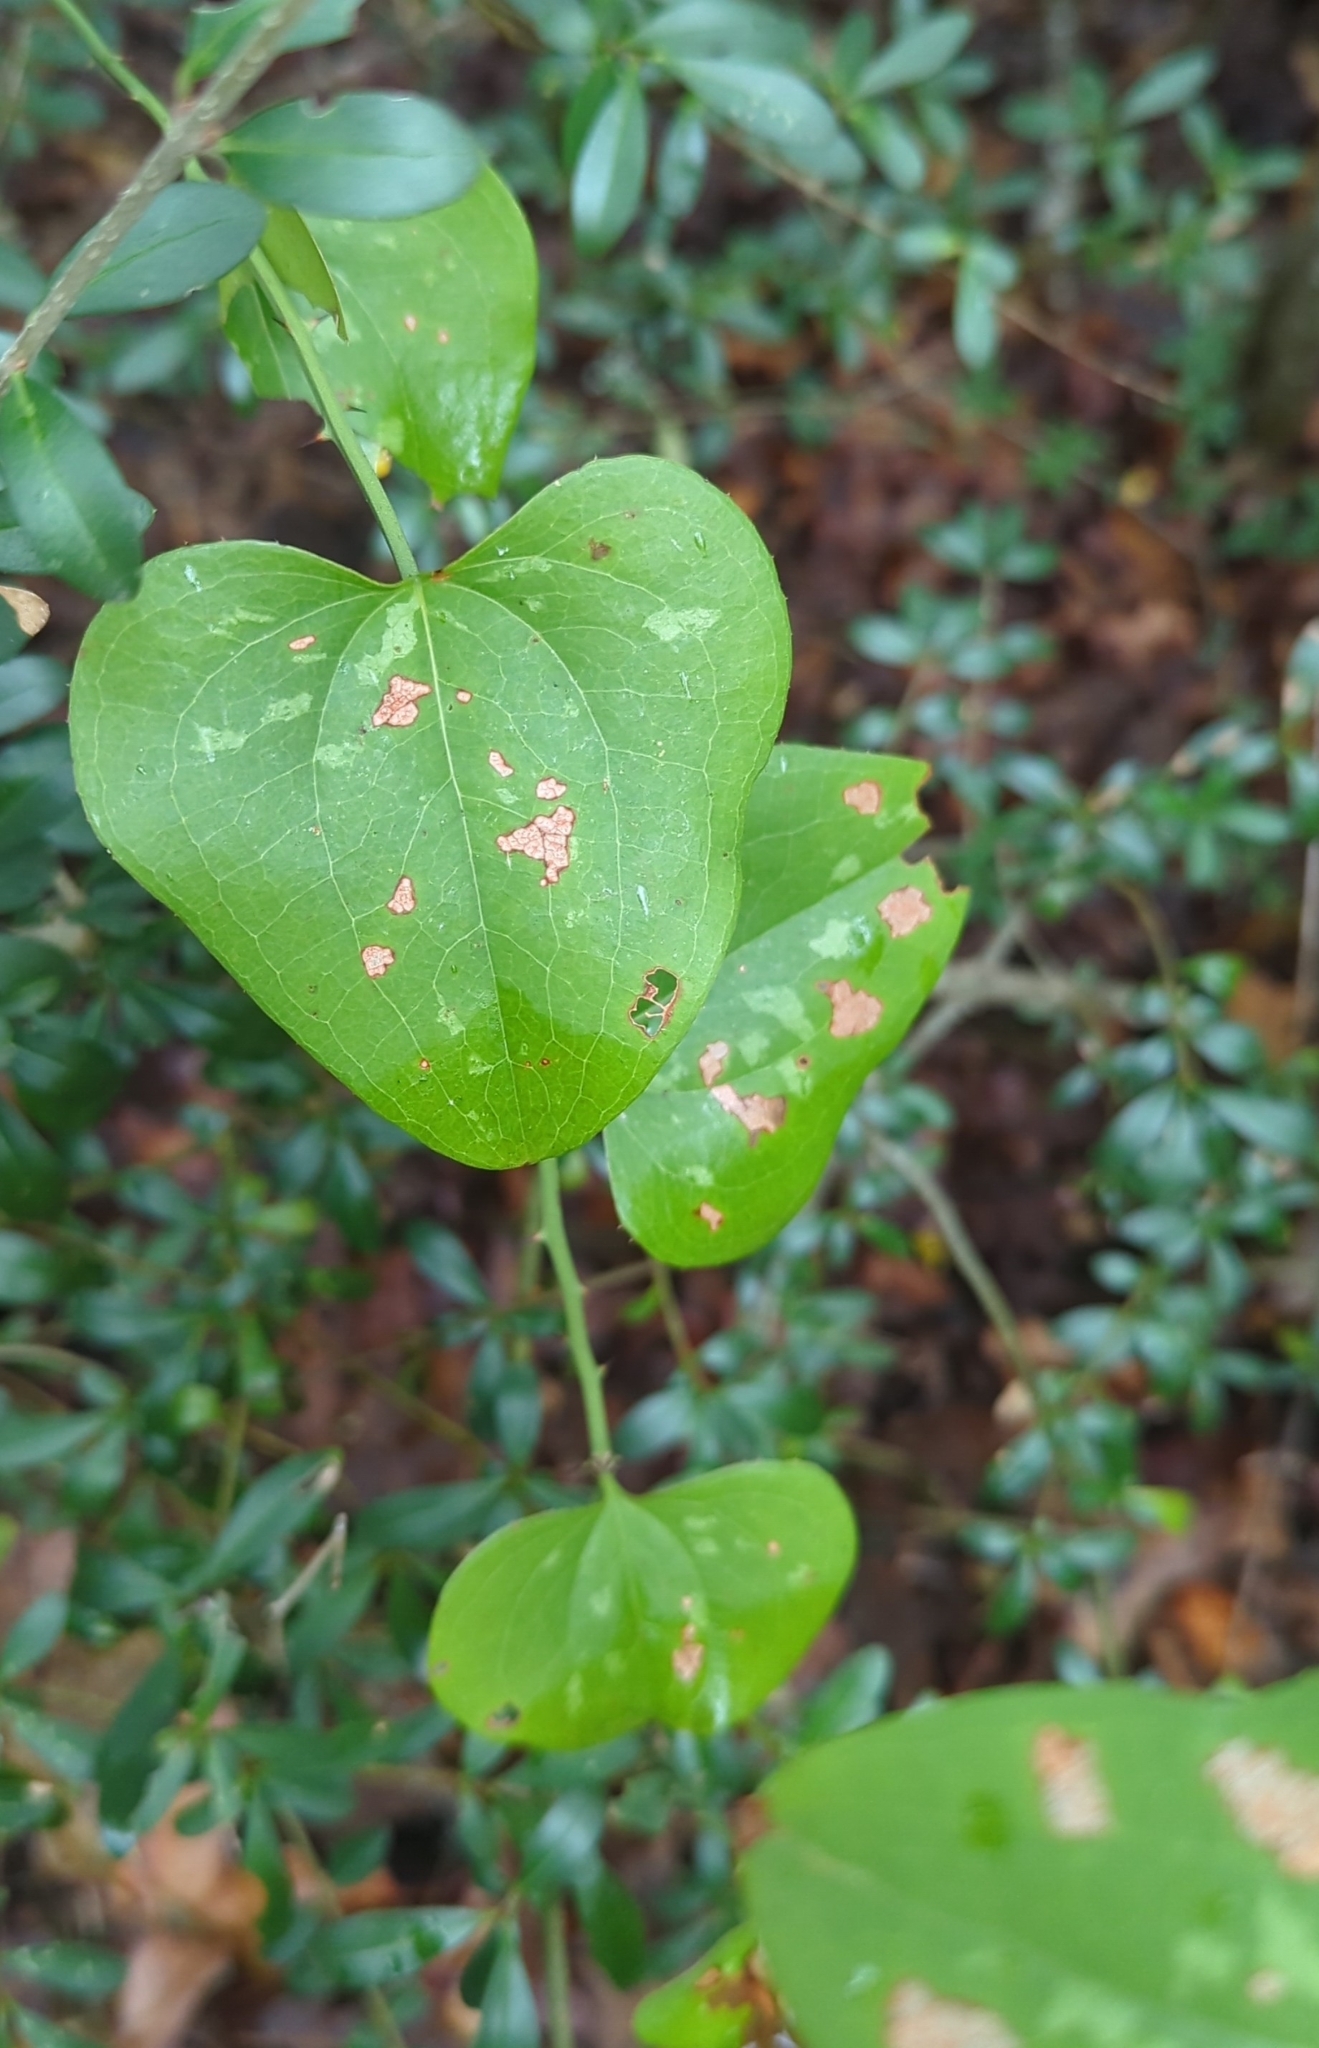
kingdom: Plantae
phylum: Tracheophyta
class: Liliopsida
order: Liliales
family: Smilacaceae
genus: Smilax
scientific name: Smilax bona-nox
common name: Catbrier
